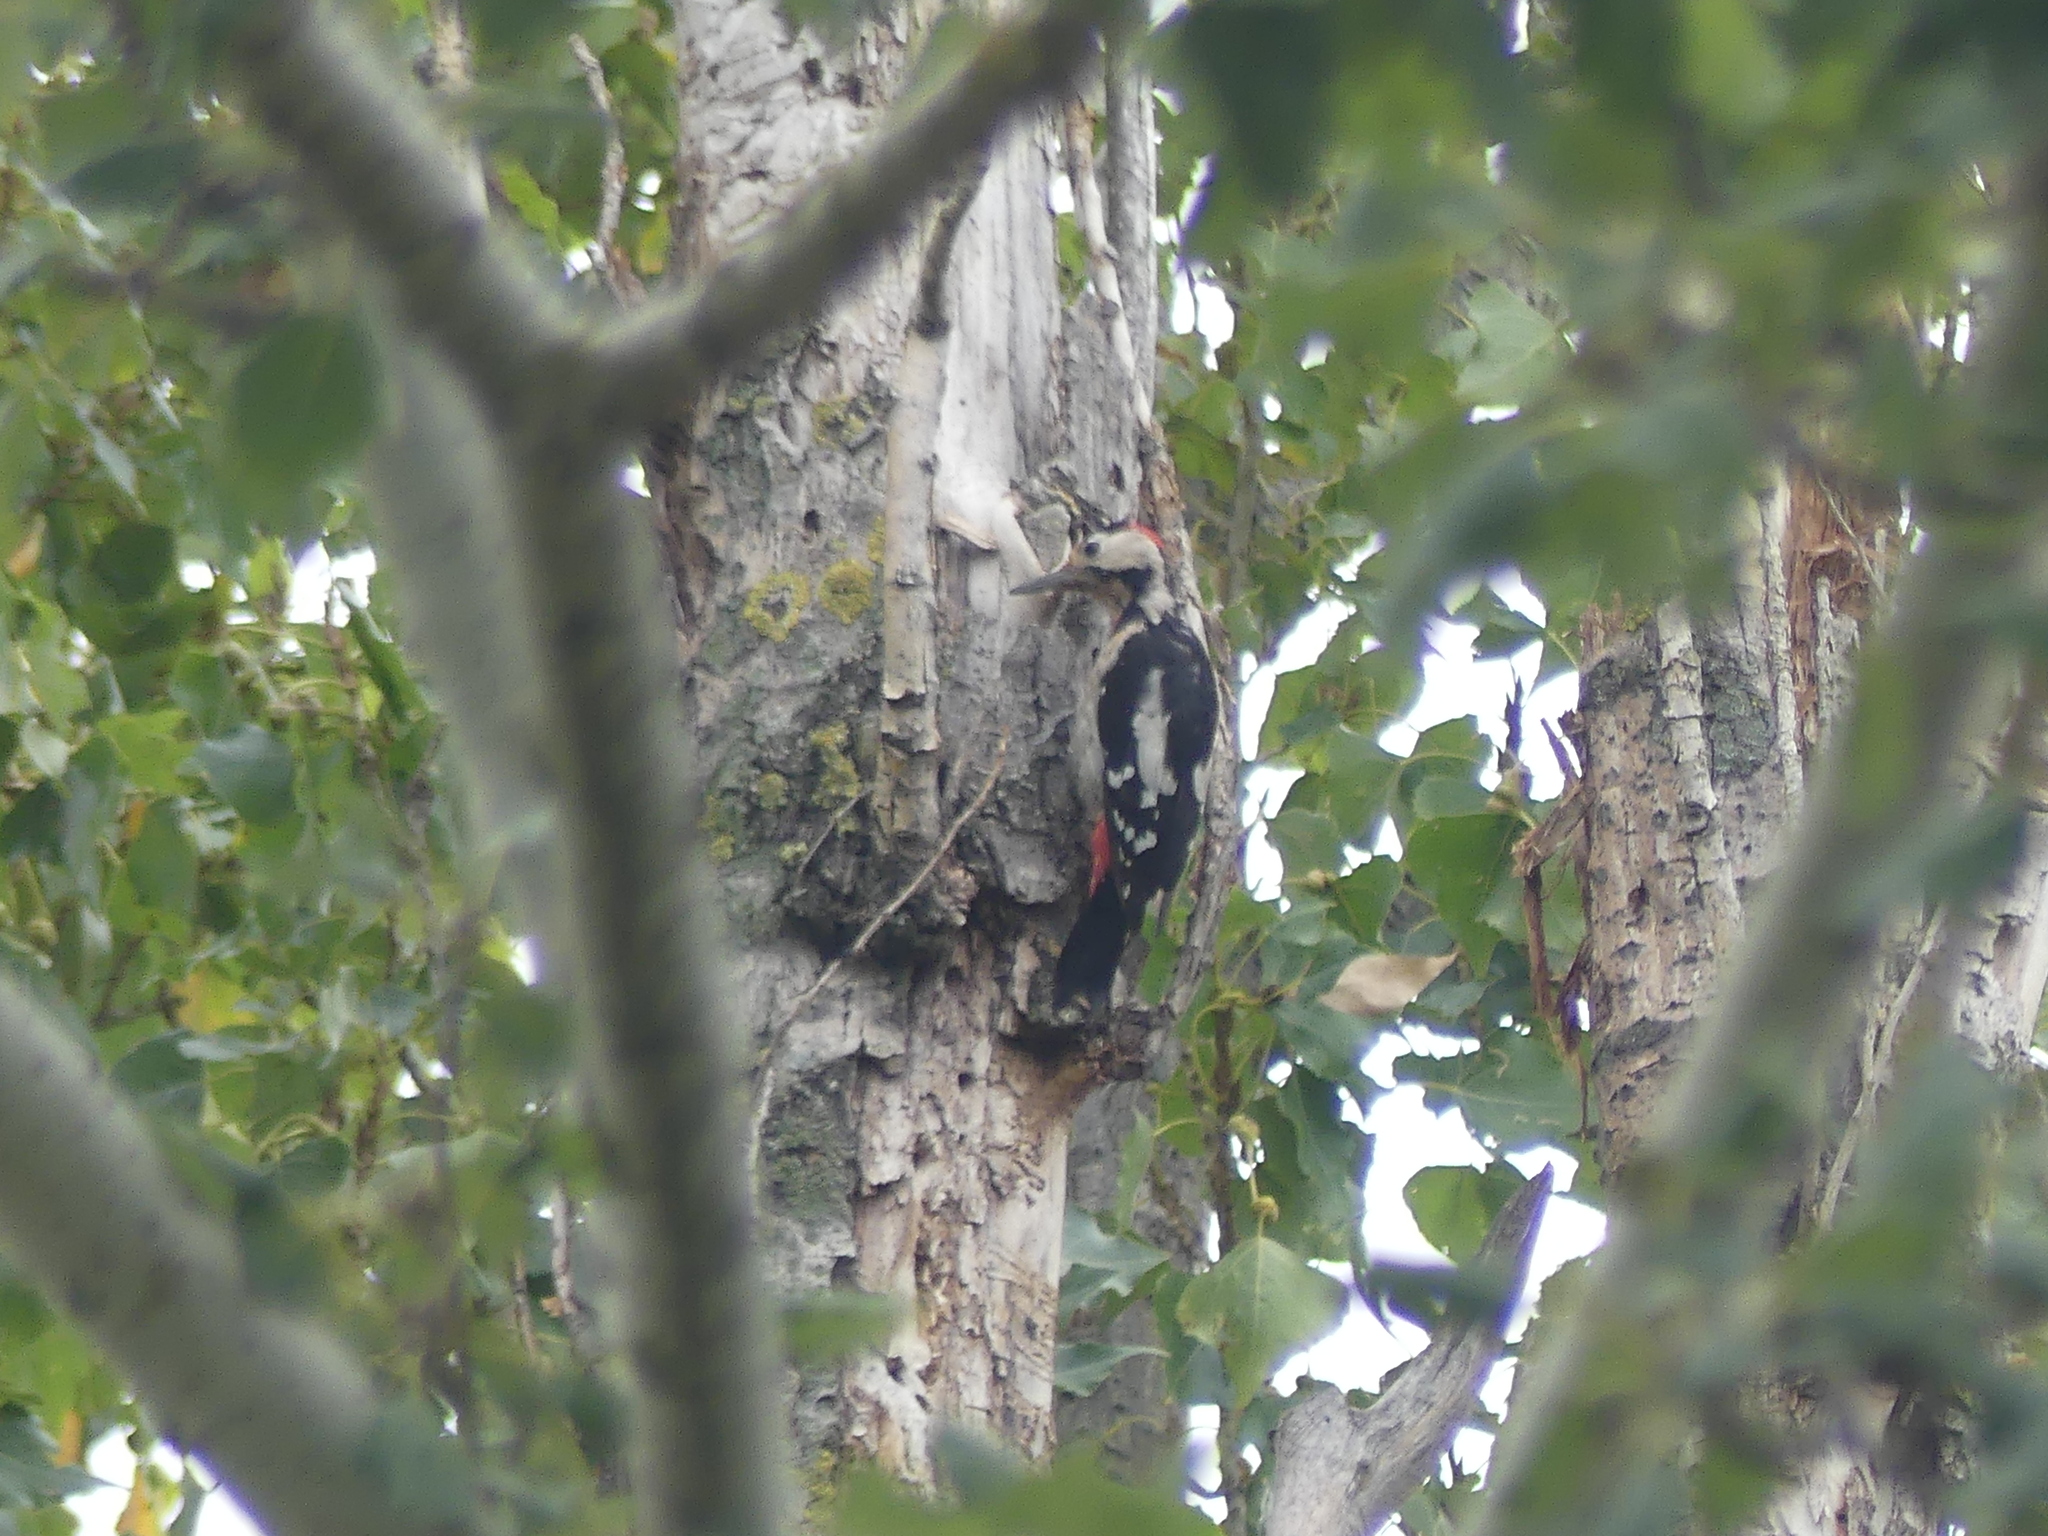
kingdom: Animalia
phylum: Chordata
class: Aves
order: Piciformes
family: Picidae
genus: Dendrocopos
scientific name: Dendrocopos syriacus
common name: Syrian woodpecker
